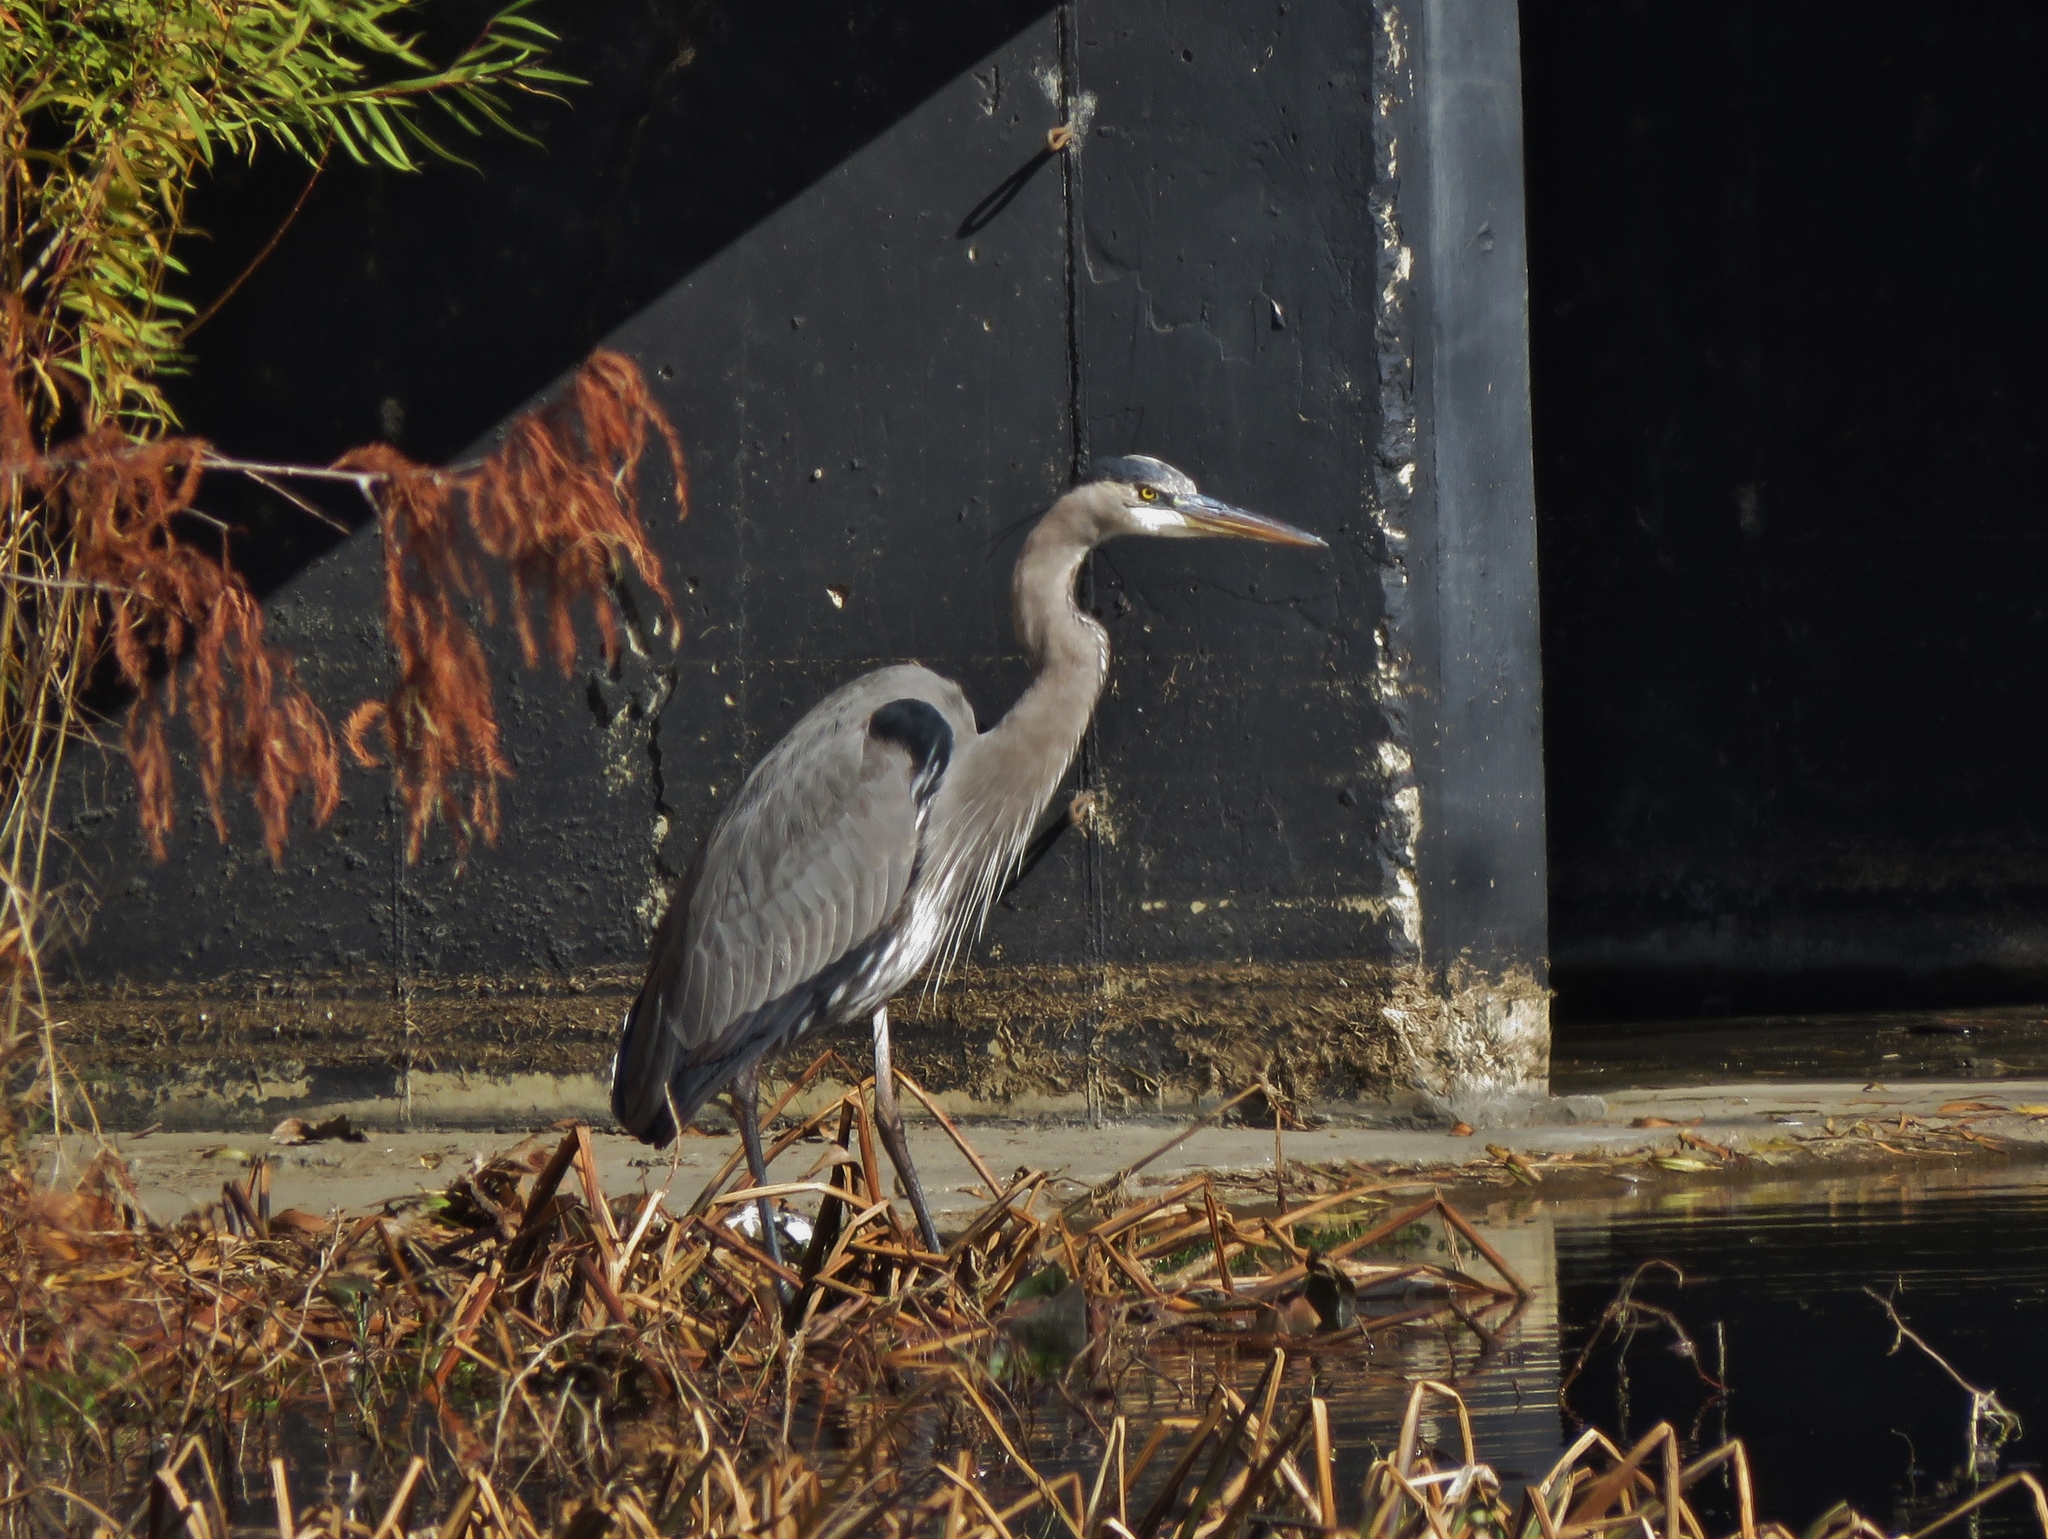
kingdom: Animalia
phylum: Chordata
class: Aves
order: Pelecaniformes
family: Ardeidae
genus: Ardea
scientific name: Ardea herodias
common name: Great blue heron
